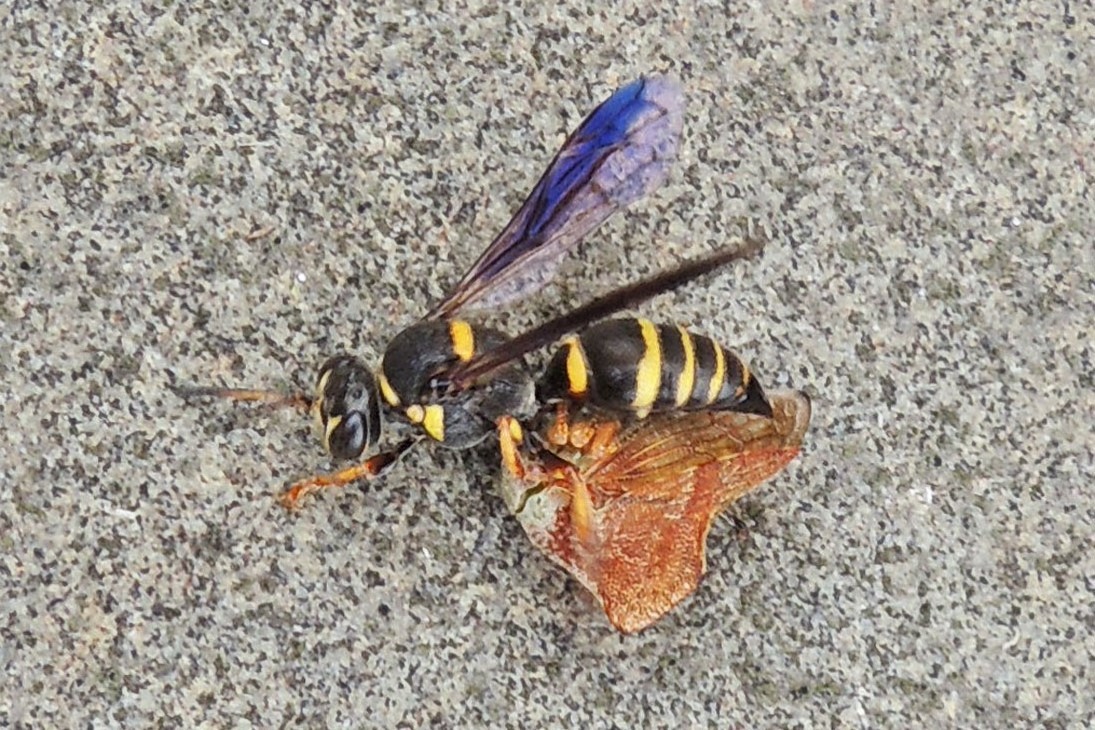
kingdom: Animalia
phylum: Arthropoda
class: Insecta
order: Hemiptera
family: Membracidae
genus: Telamona
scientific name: Telamona collina
